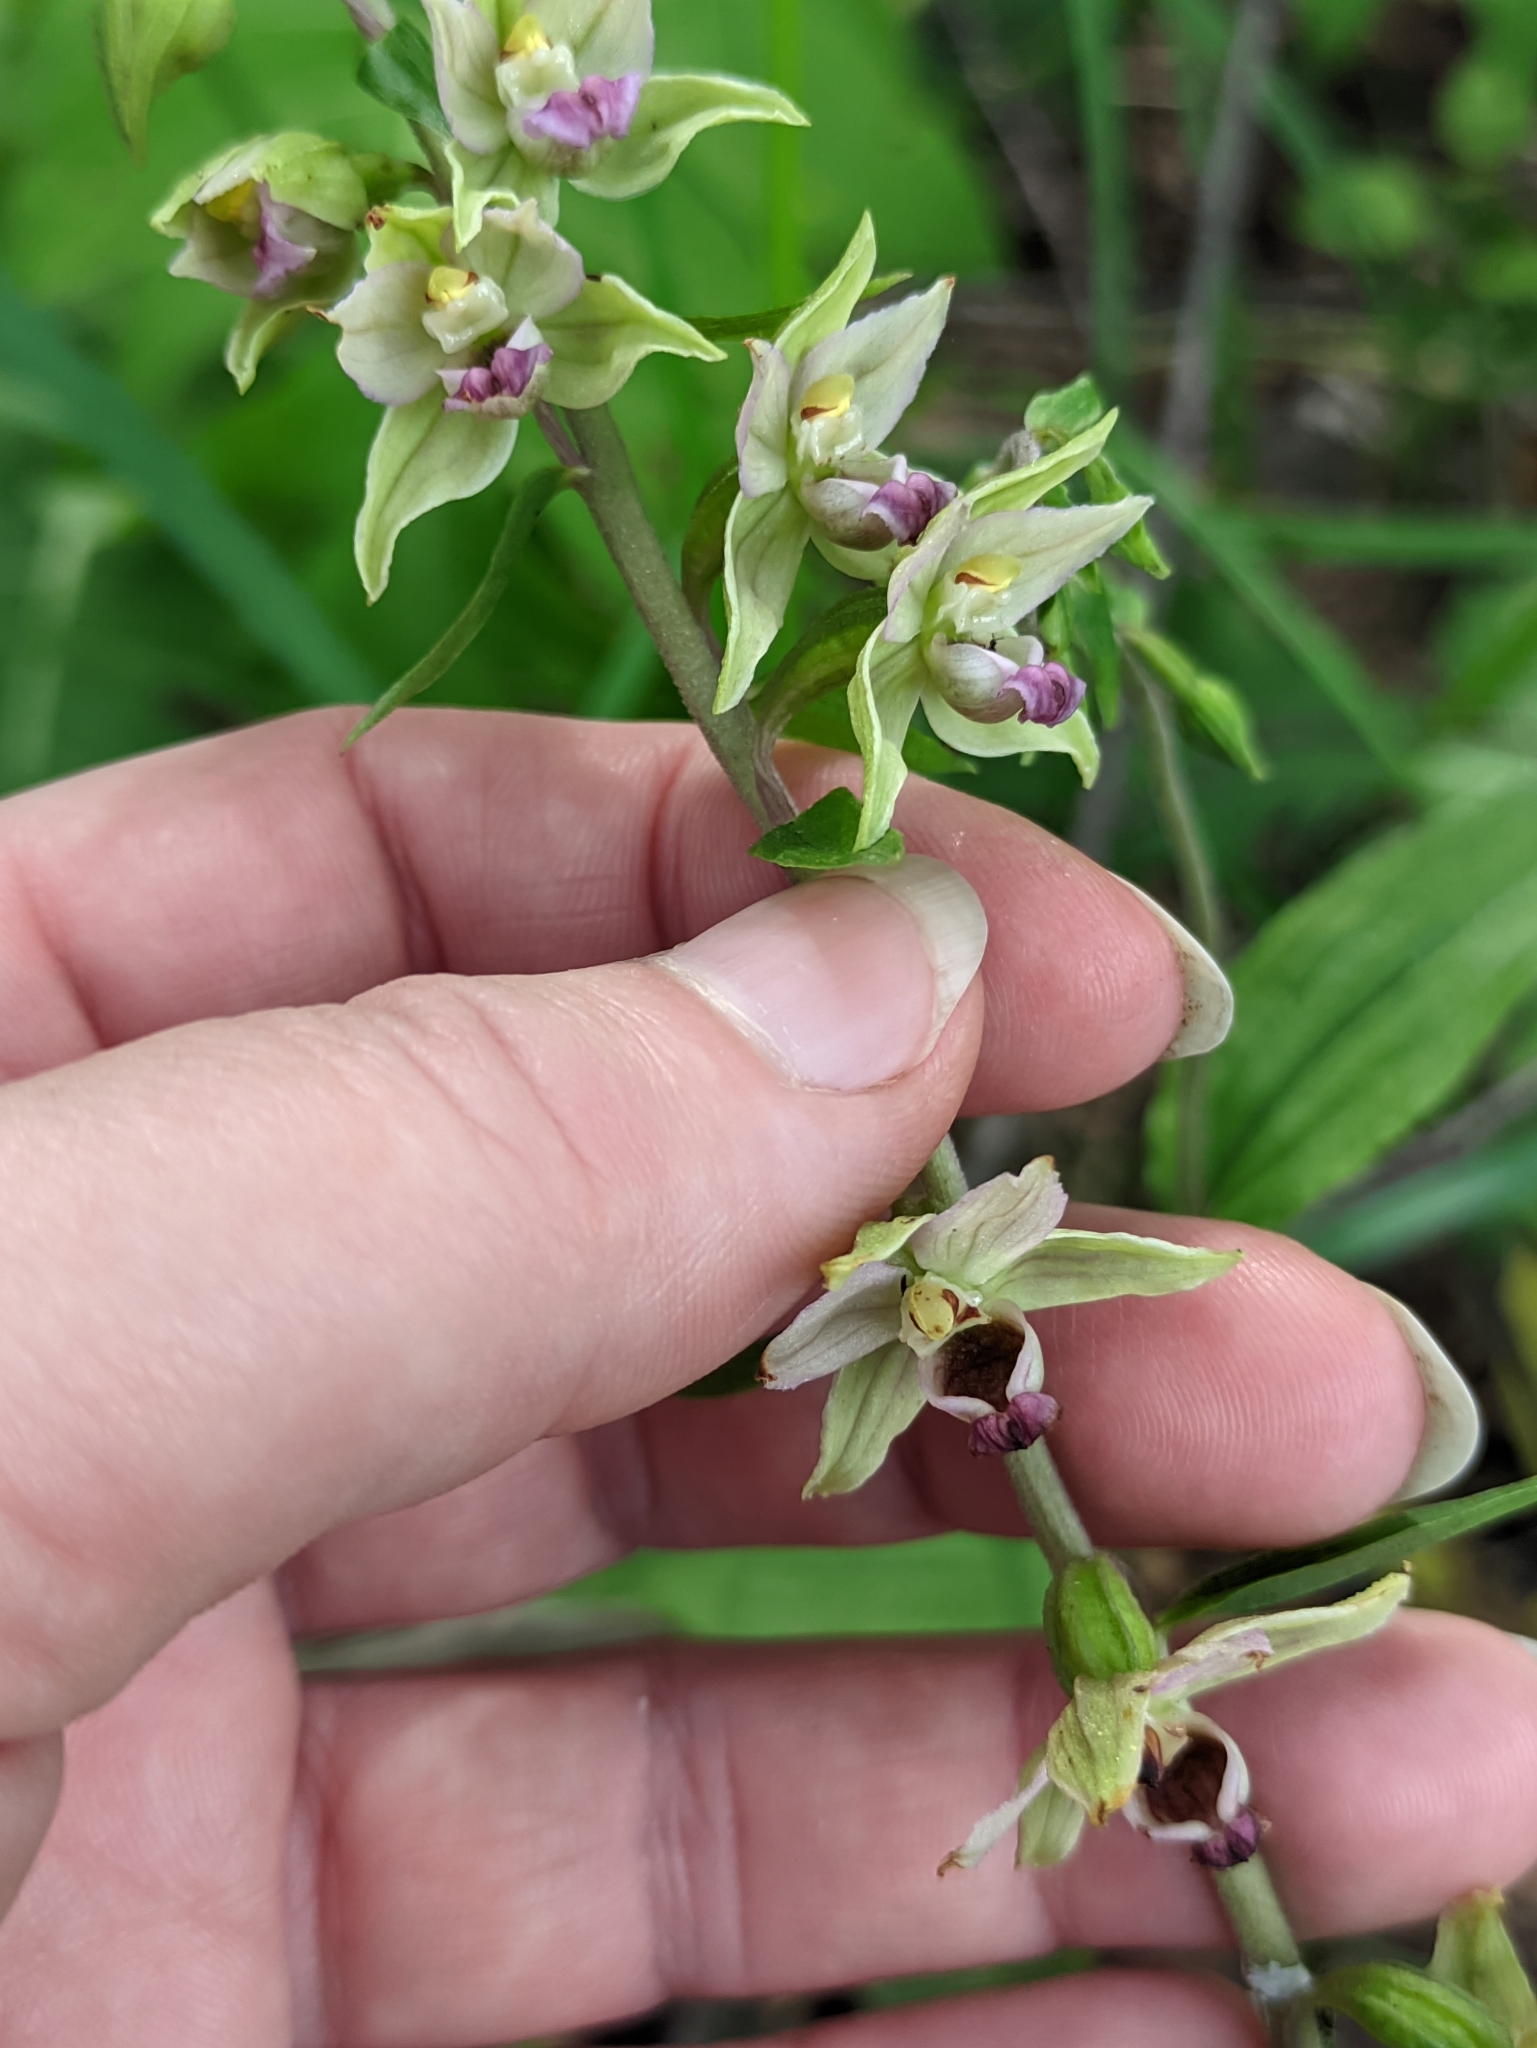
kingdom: Plantae
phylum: Tracheophyta
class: Liliopsida
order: Asparagales
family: Orchidaceae
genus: Epipactis
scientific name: Epipactis helleborine
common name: Broad-leaved helleborine
